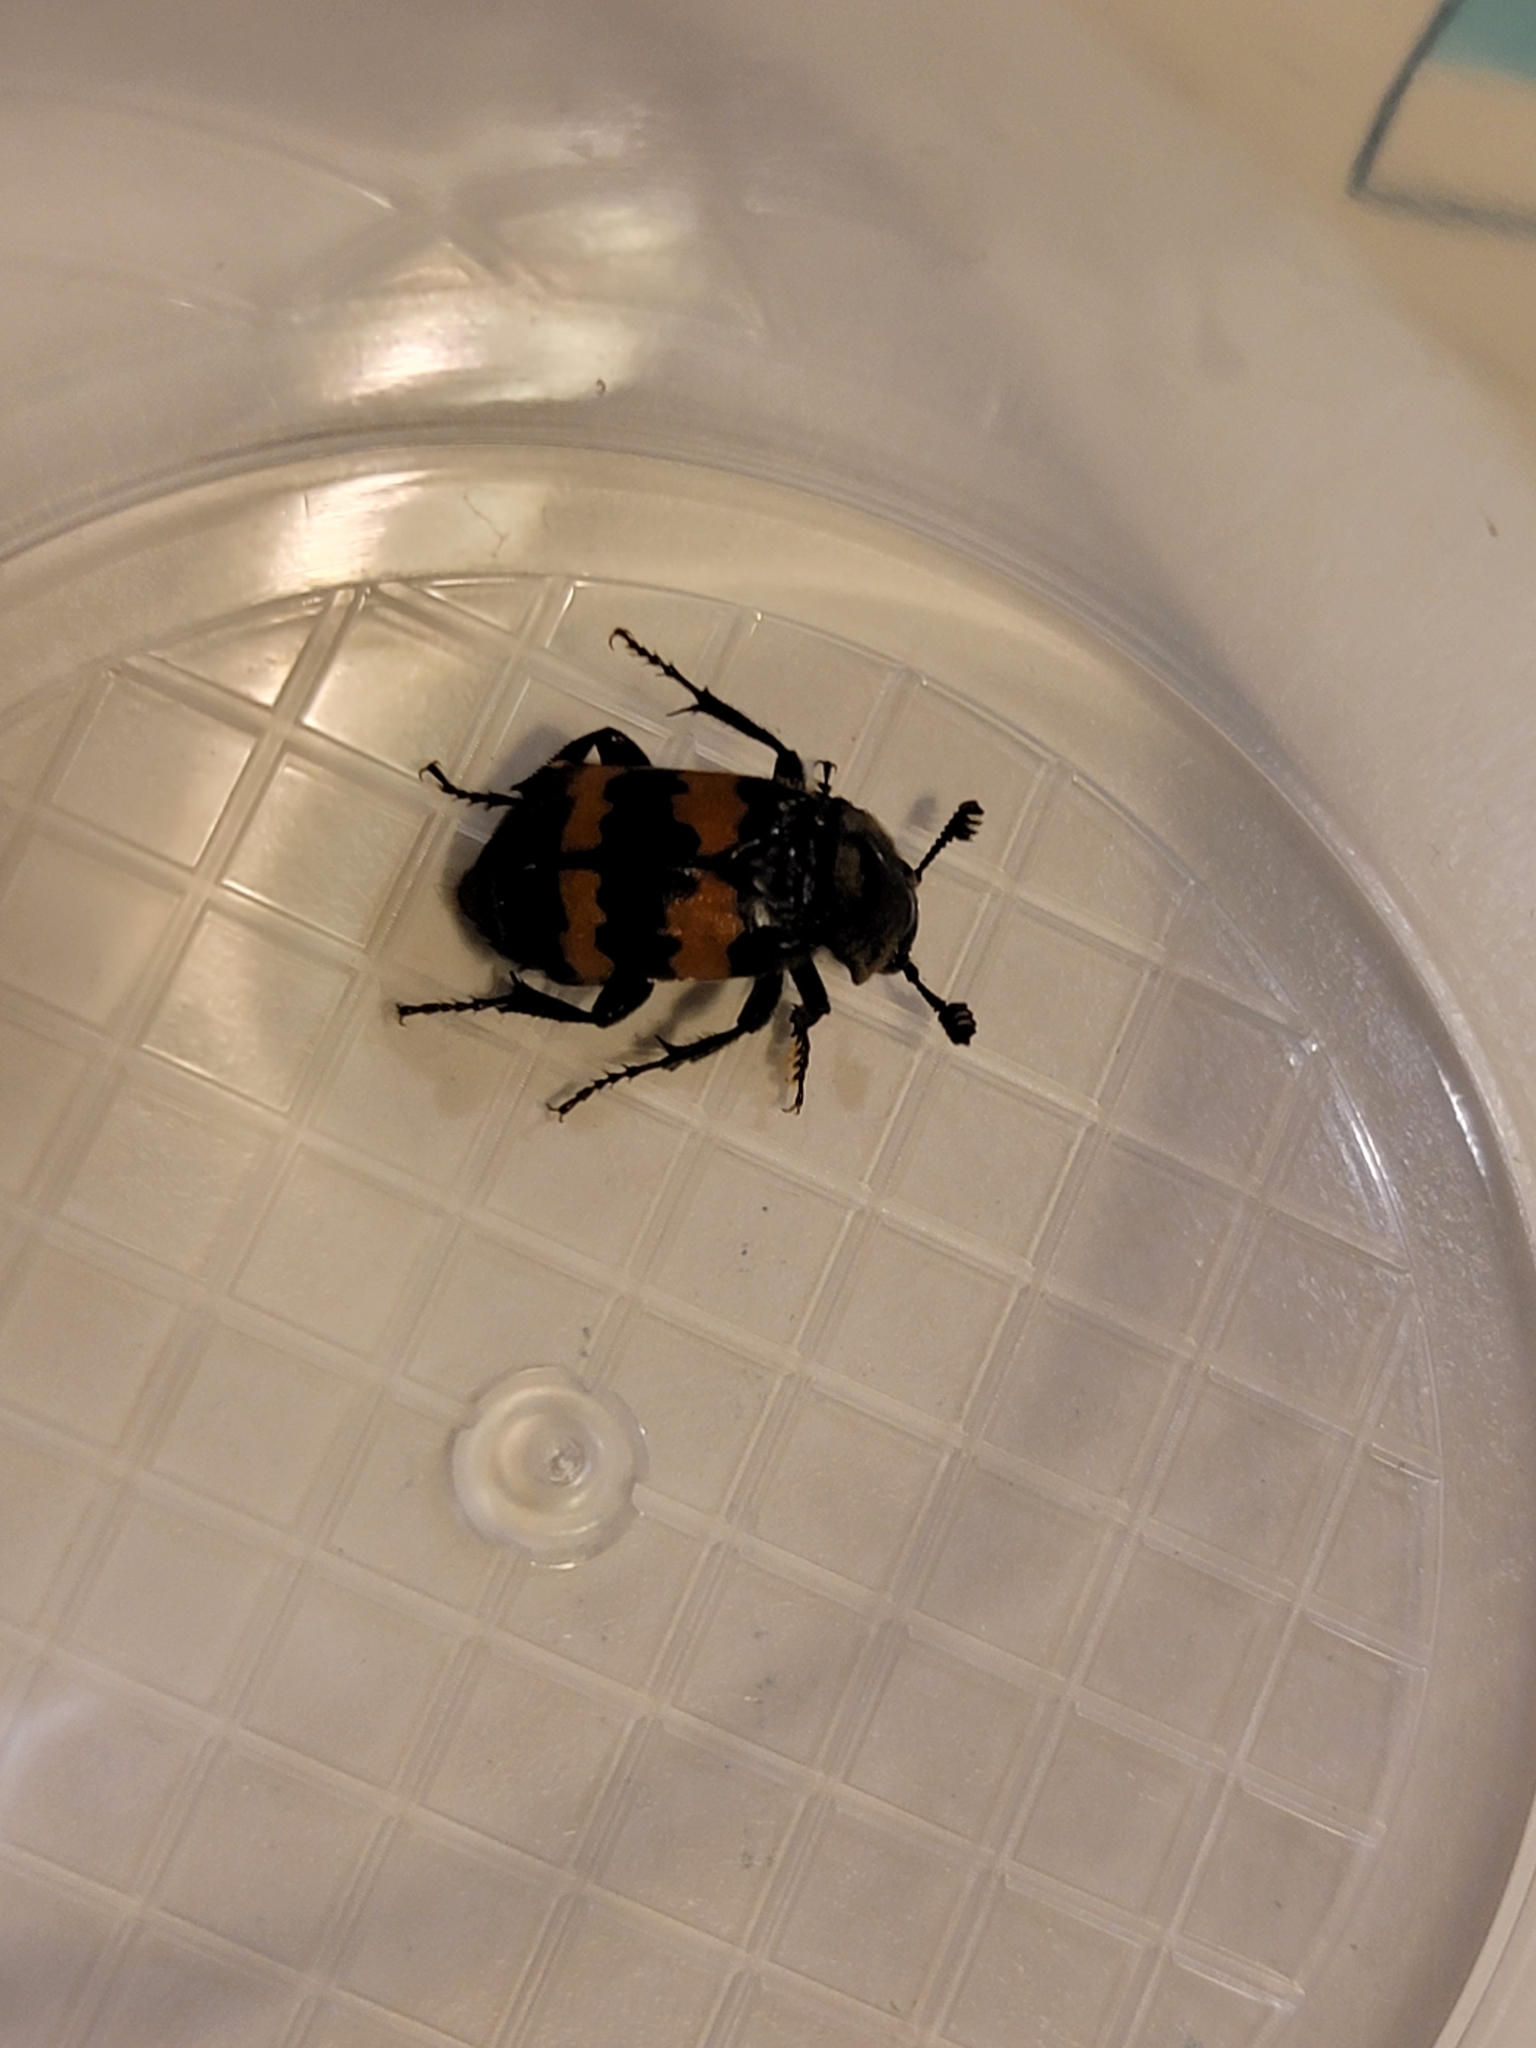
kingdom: Animalia
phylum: Arthropoda
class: Insecta
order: Coleoptera
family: Staphylinidae
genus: Nicrophorus
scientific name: Nicrophorus tomentosus
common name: Tomentose burying beetle
